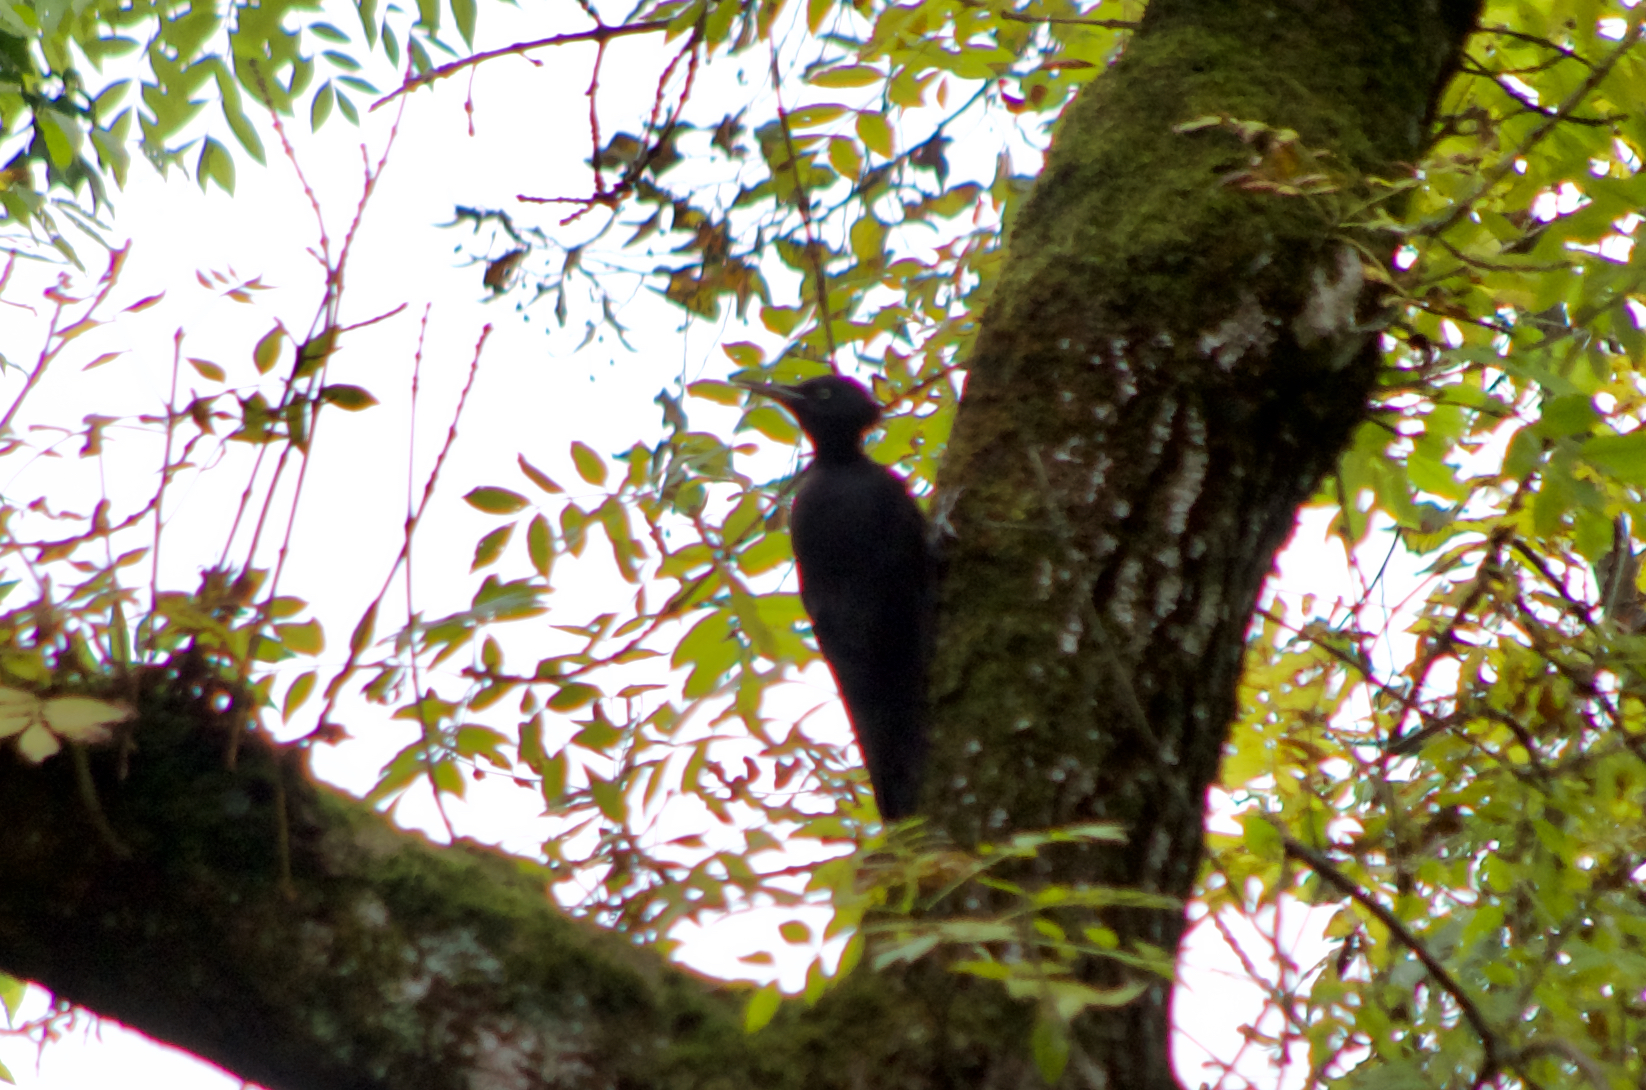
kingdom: Animalia
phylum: Chordata
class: Aves
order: Piciformes
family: Picidae
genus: Dryocopus
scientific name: Dryocopus martius
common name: Black woodpecker
